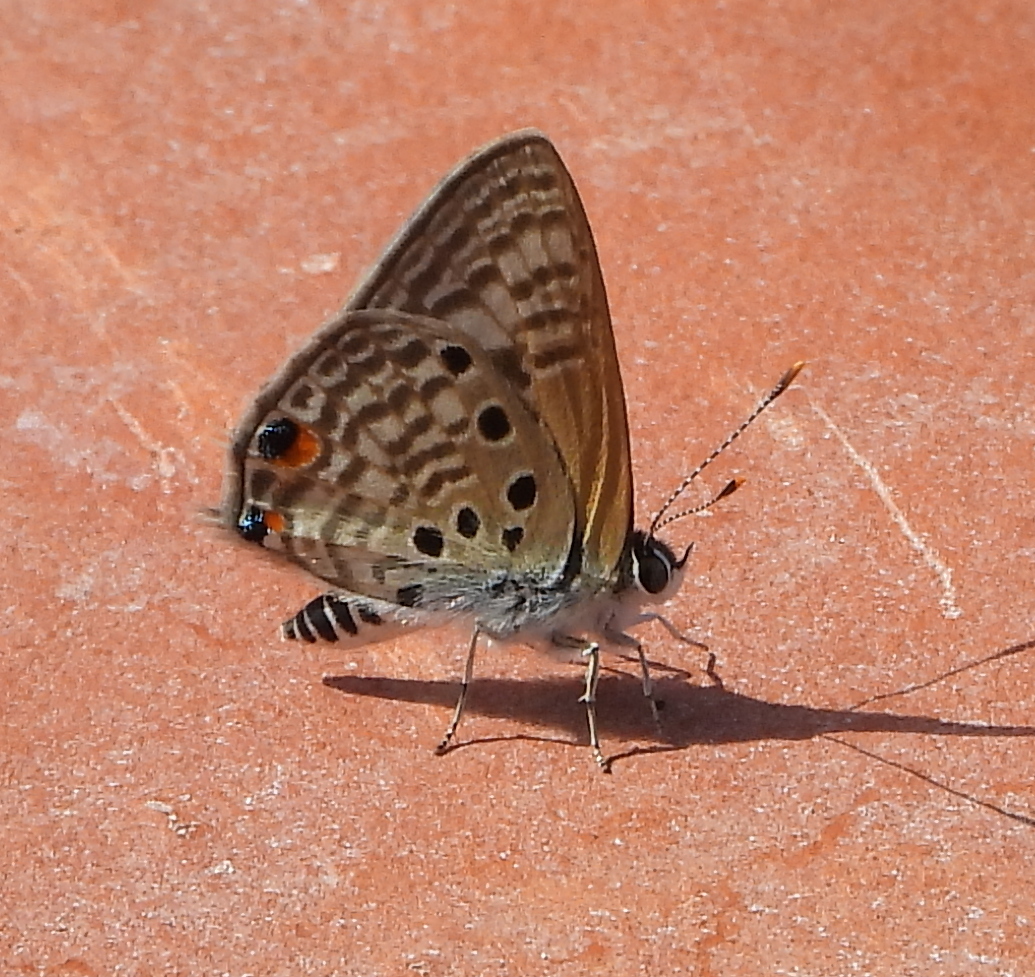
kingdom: Animalia
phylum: Arthropoda
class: Insecta
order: Lepidoptera
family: Lycaenidae
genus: Anthene
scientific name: Anthene amarah
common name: Black-striped hairtail
